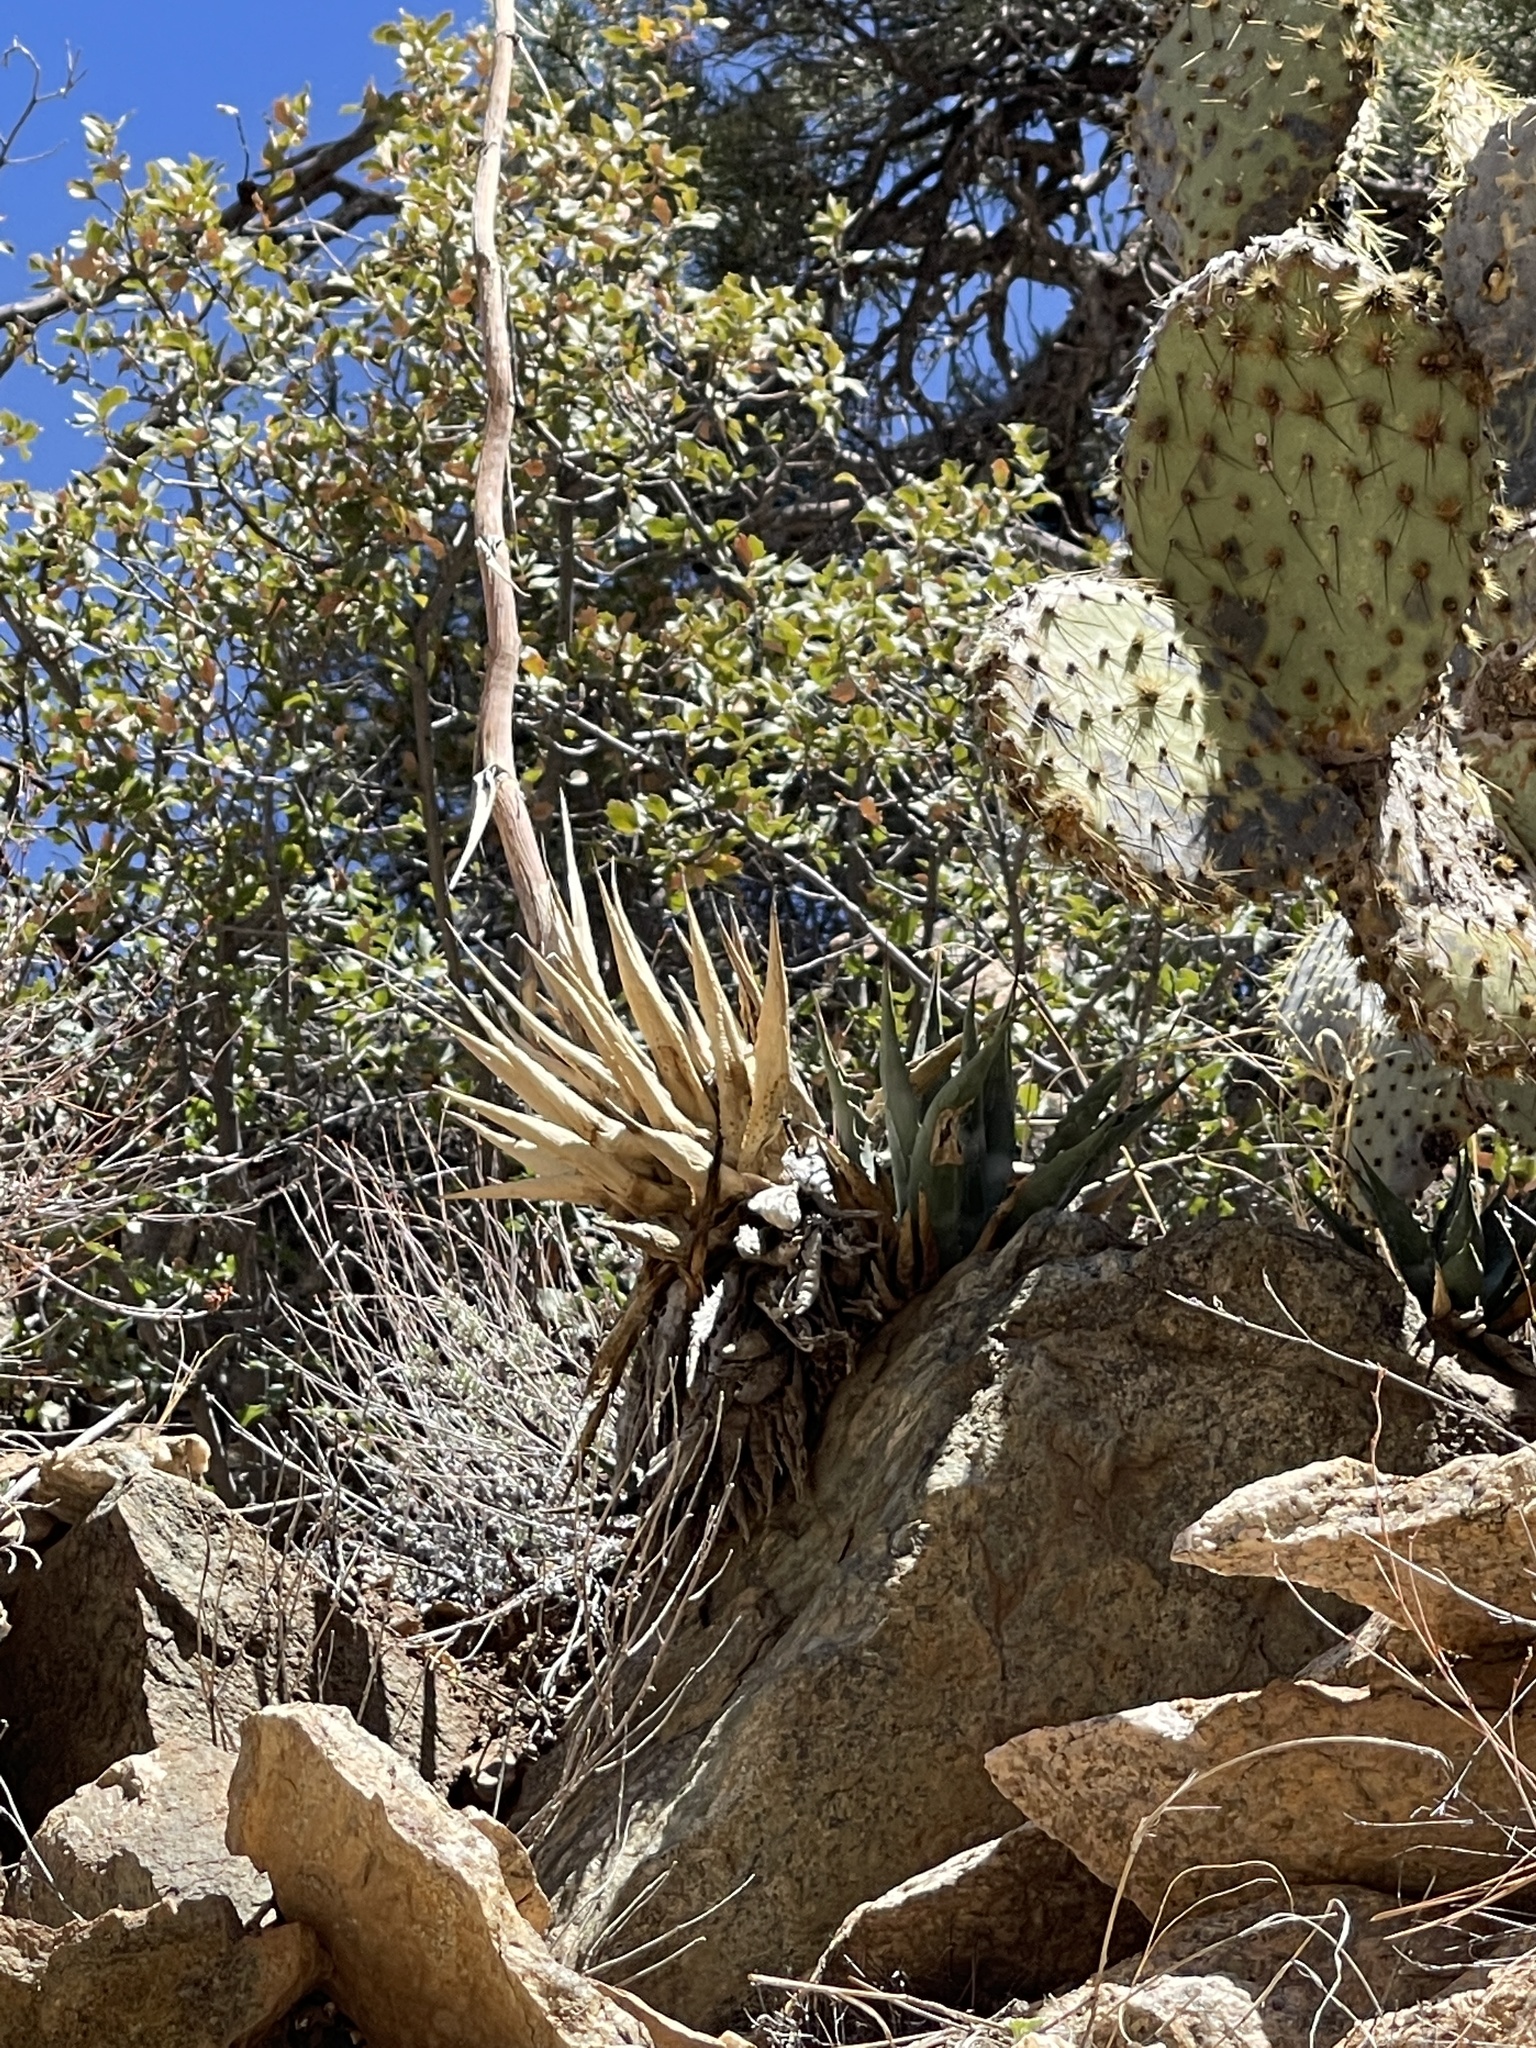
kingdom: Plantae
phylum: Tracheophyta
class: Liliopsida
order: Asparagales
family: Asparagaceae
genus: Agave
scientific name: Agave mckelveyana
